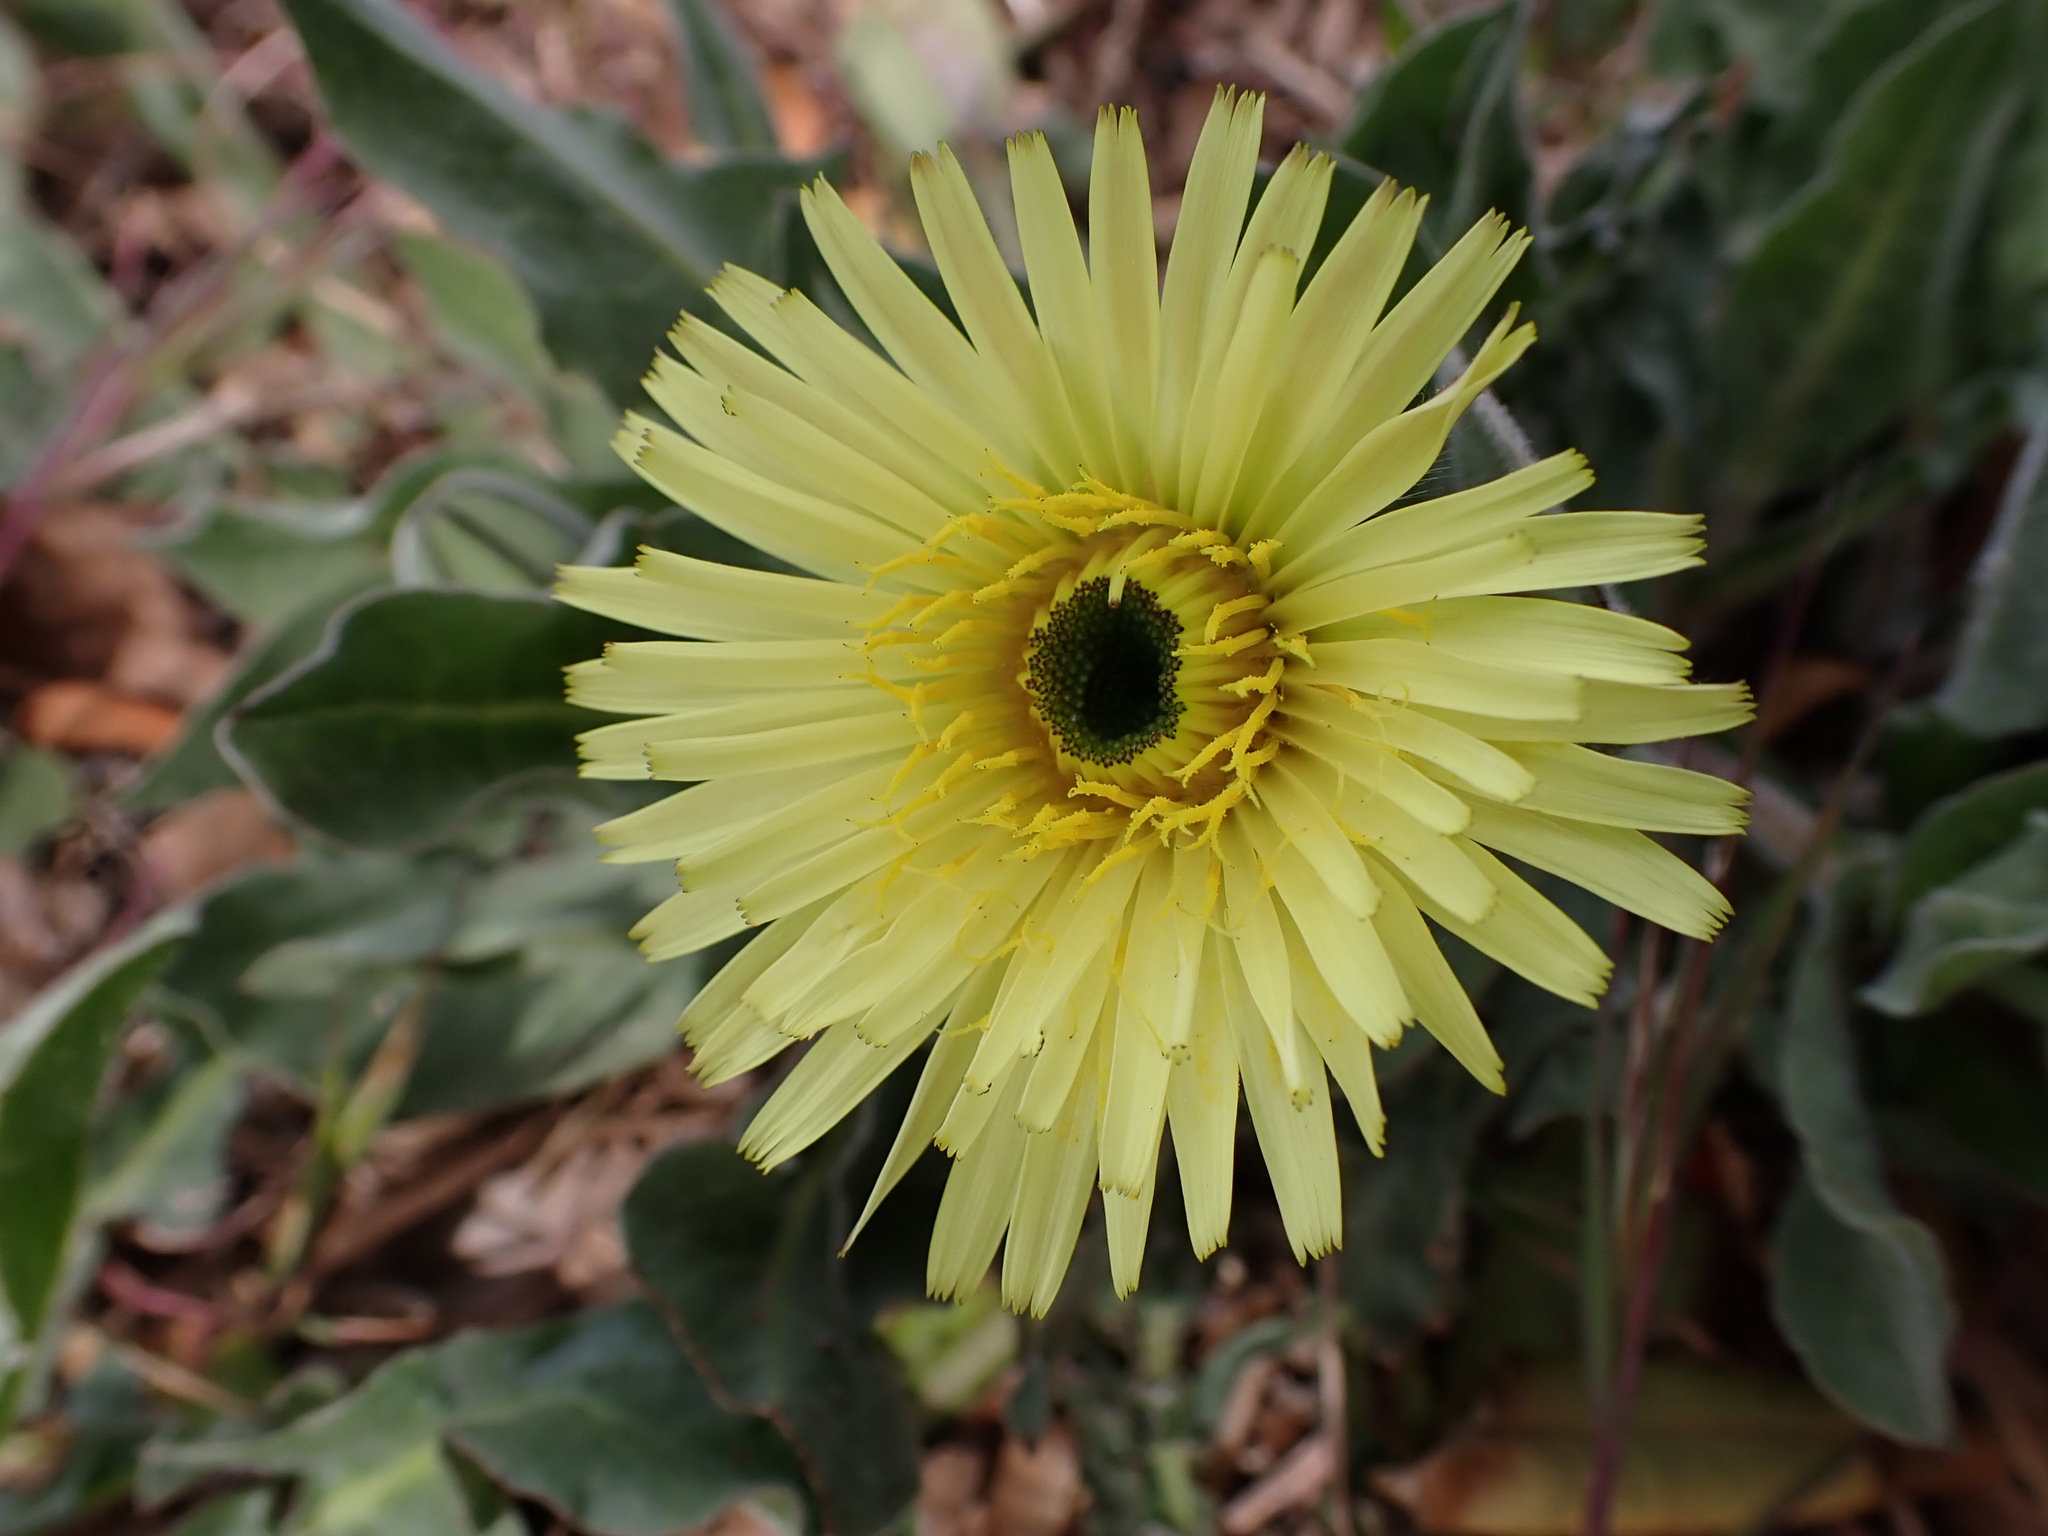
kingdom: Plantae
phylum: Tracheophyta
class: Magnoliopsida
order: Asterales
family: Asteraceae
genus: Urospermum
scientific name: Urospermum dalechampii
